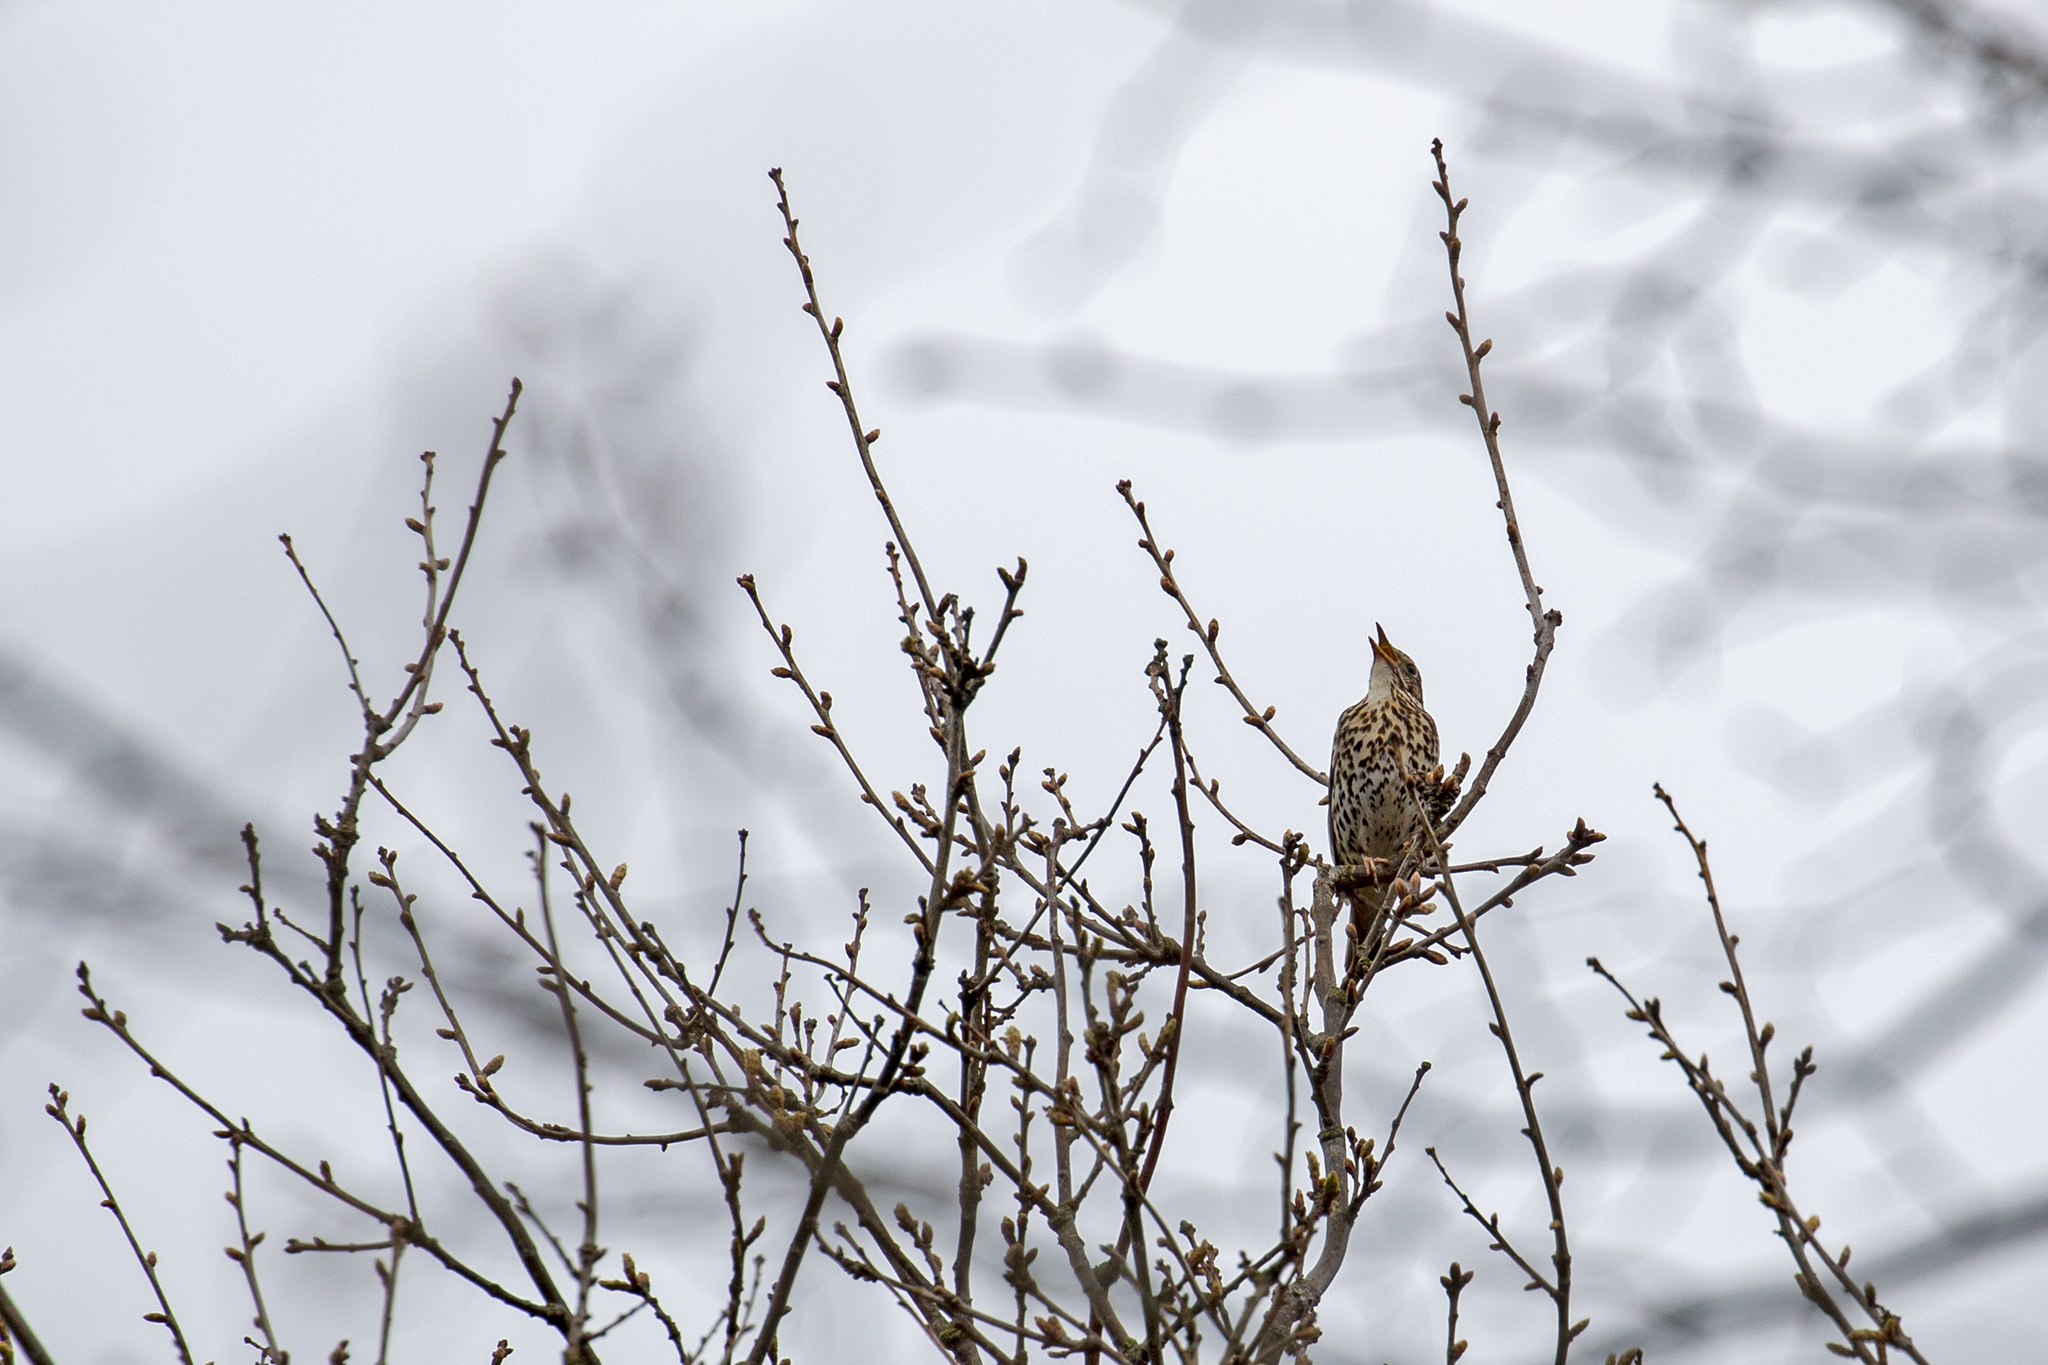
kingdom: Animalia
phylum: Chordata
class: Aves
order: Passeriformes
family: Turdidae
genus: Turdus
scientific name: Turdus philomelos
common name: Song thrush
